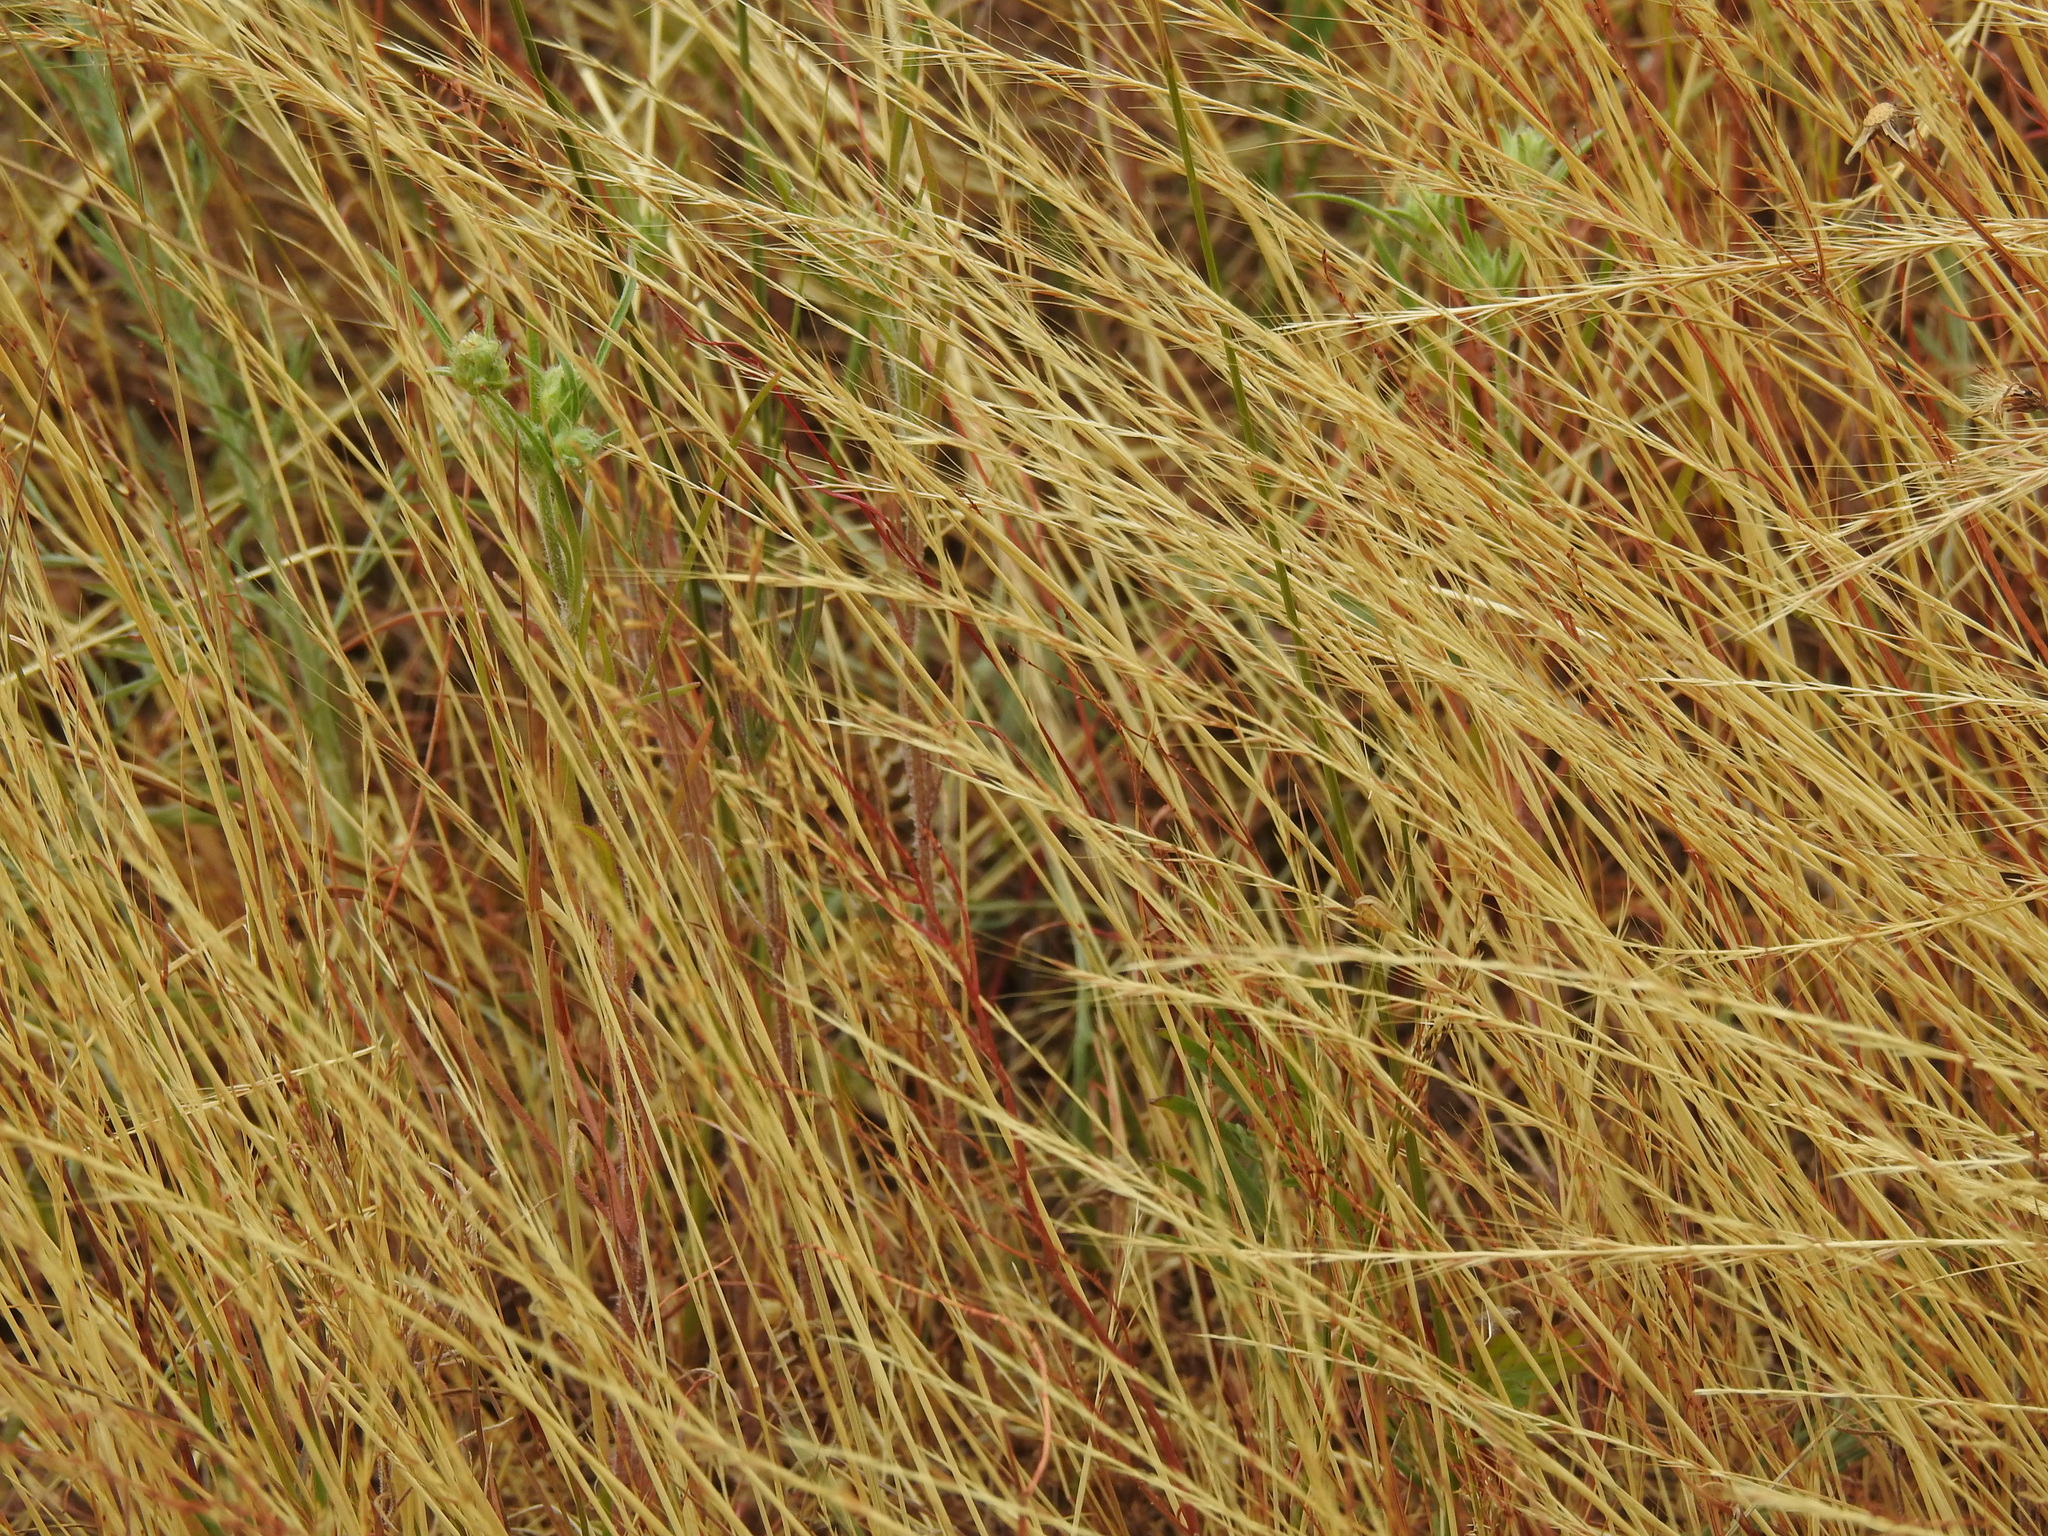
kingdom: Plantae
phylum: Tracheophyta
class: Liliopsida
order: Poales
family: Poaceae
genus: Festuca
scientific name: Festuca myuros
